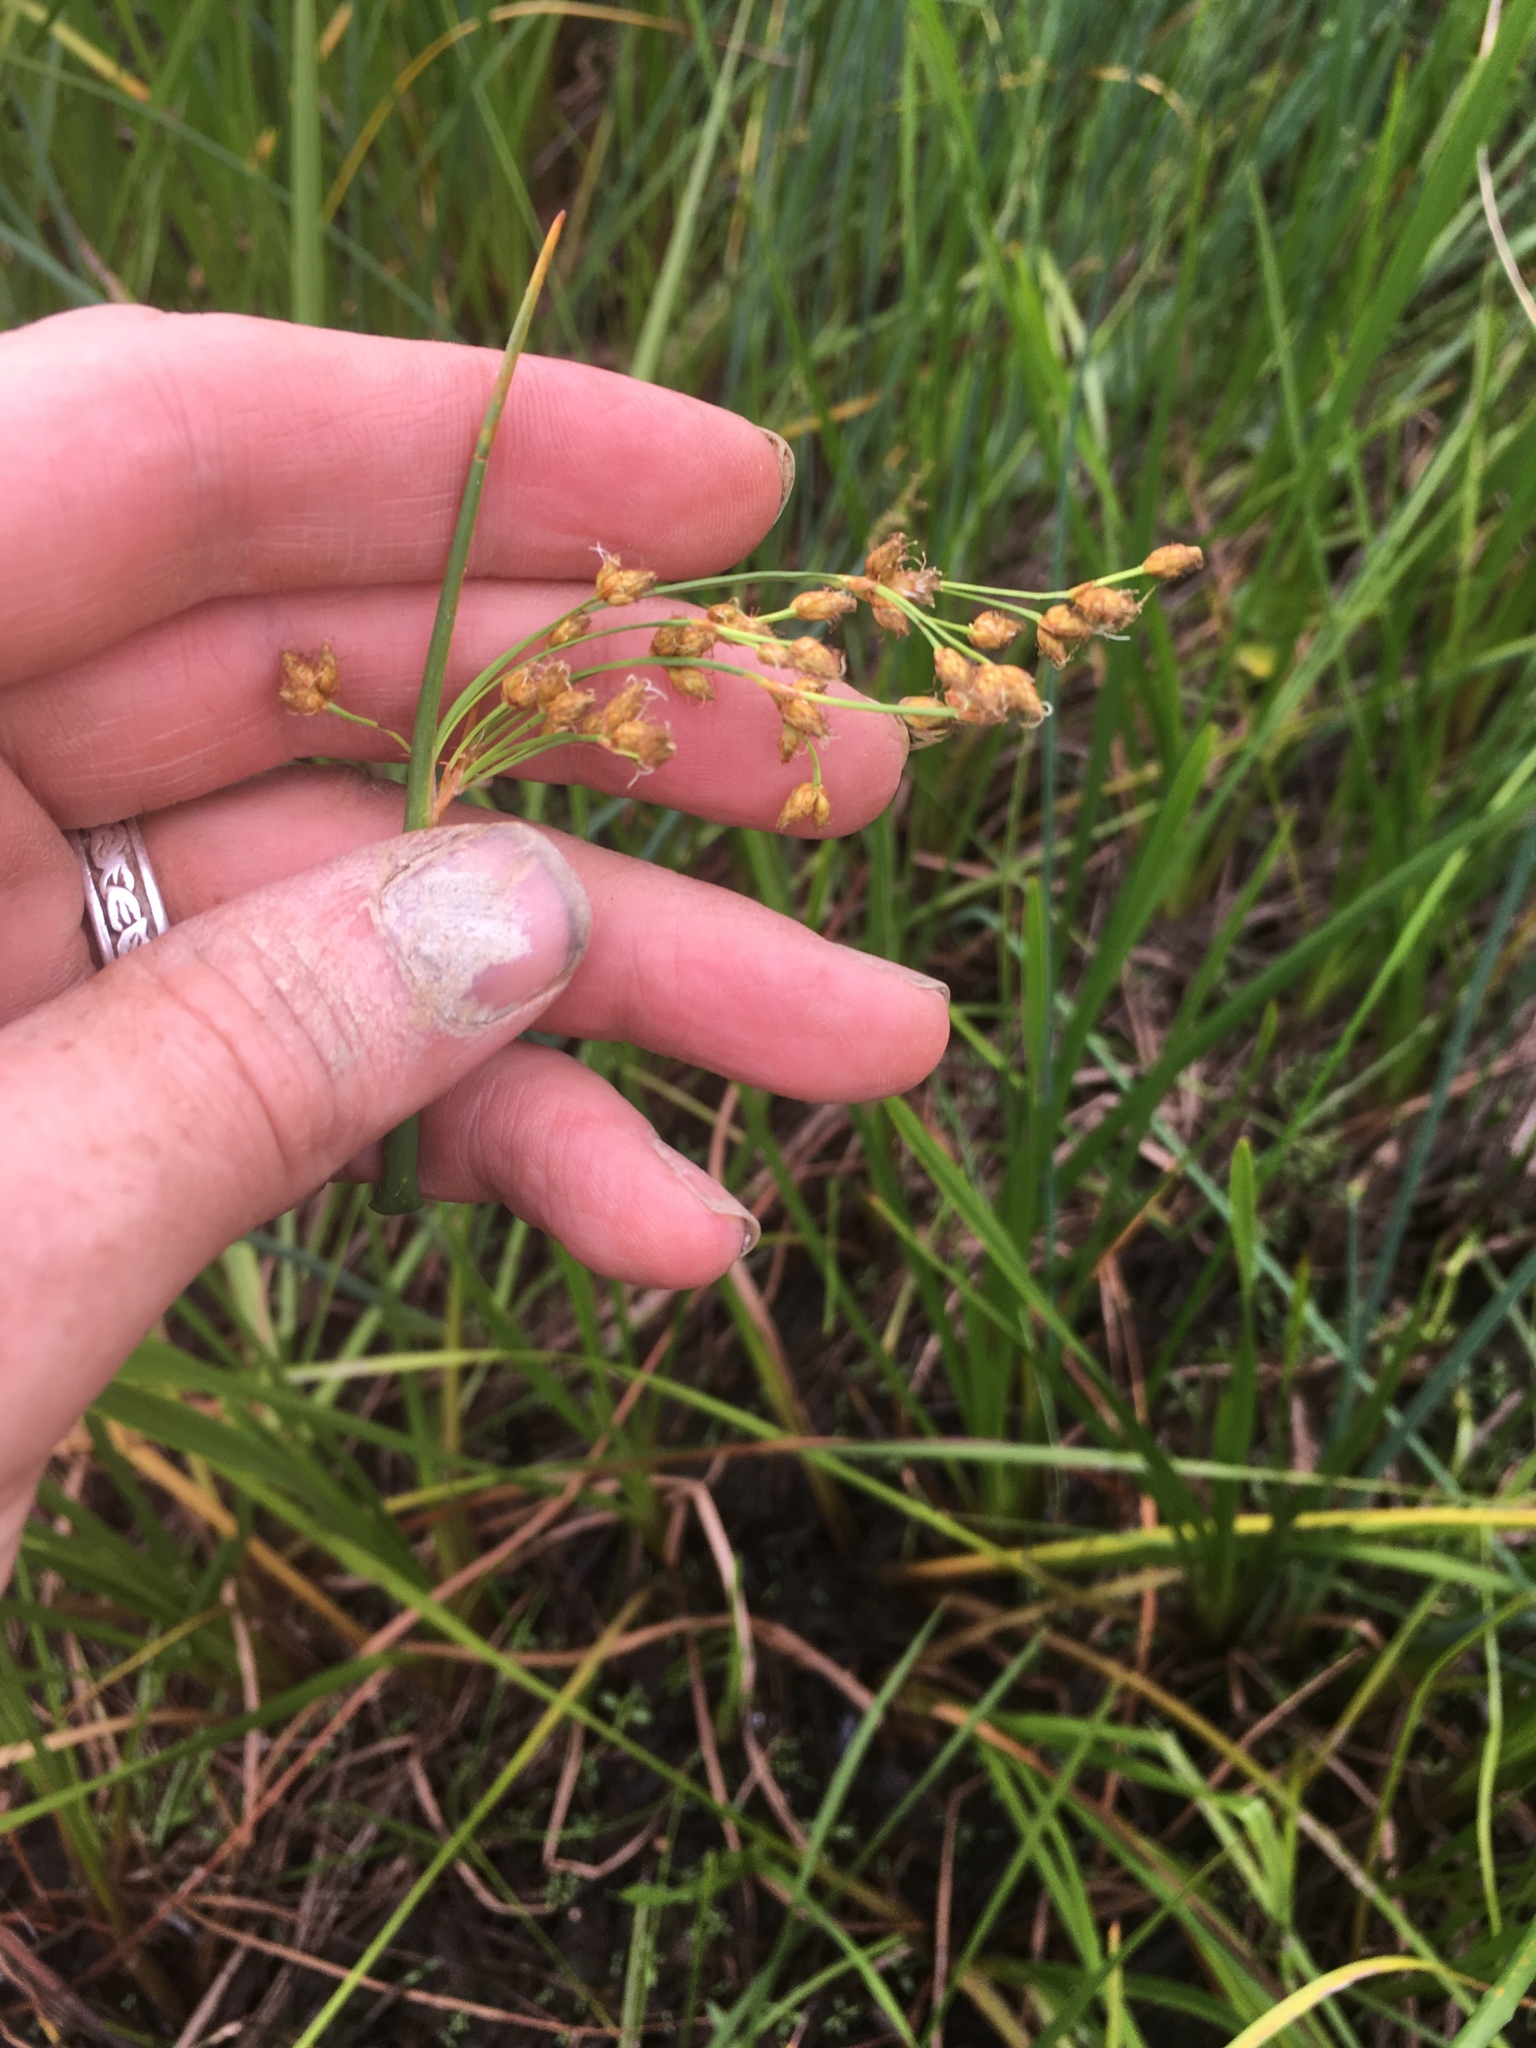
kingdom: Plantae
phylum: Tracheophyta
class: Liliopsida
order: Poales
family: Cyperaceae
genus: Schoenoplectus
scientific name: Schoenoplectus tabernaemontani
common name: Grey club-rush
